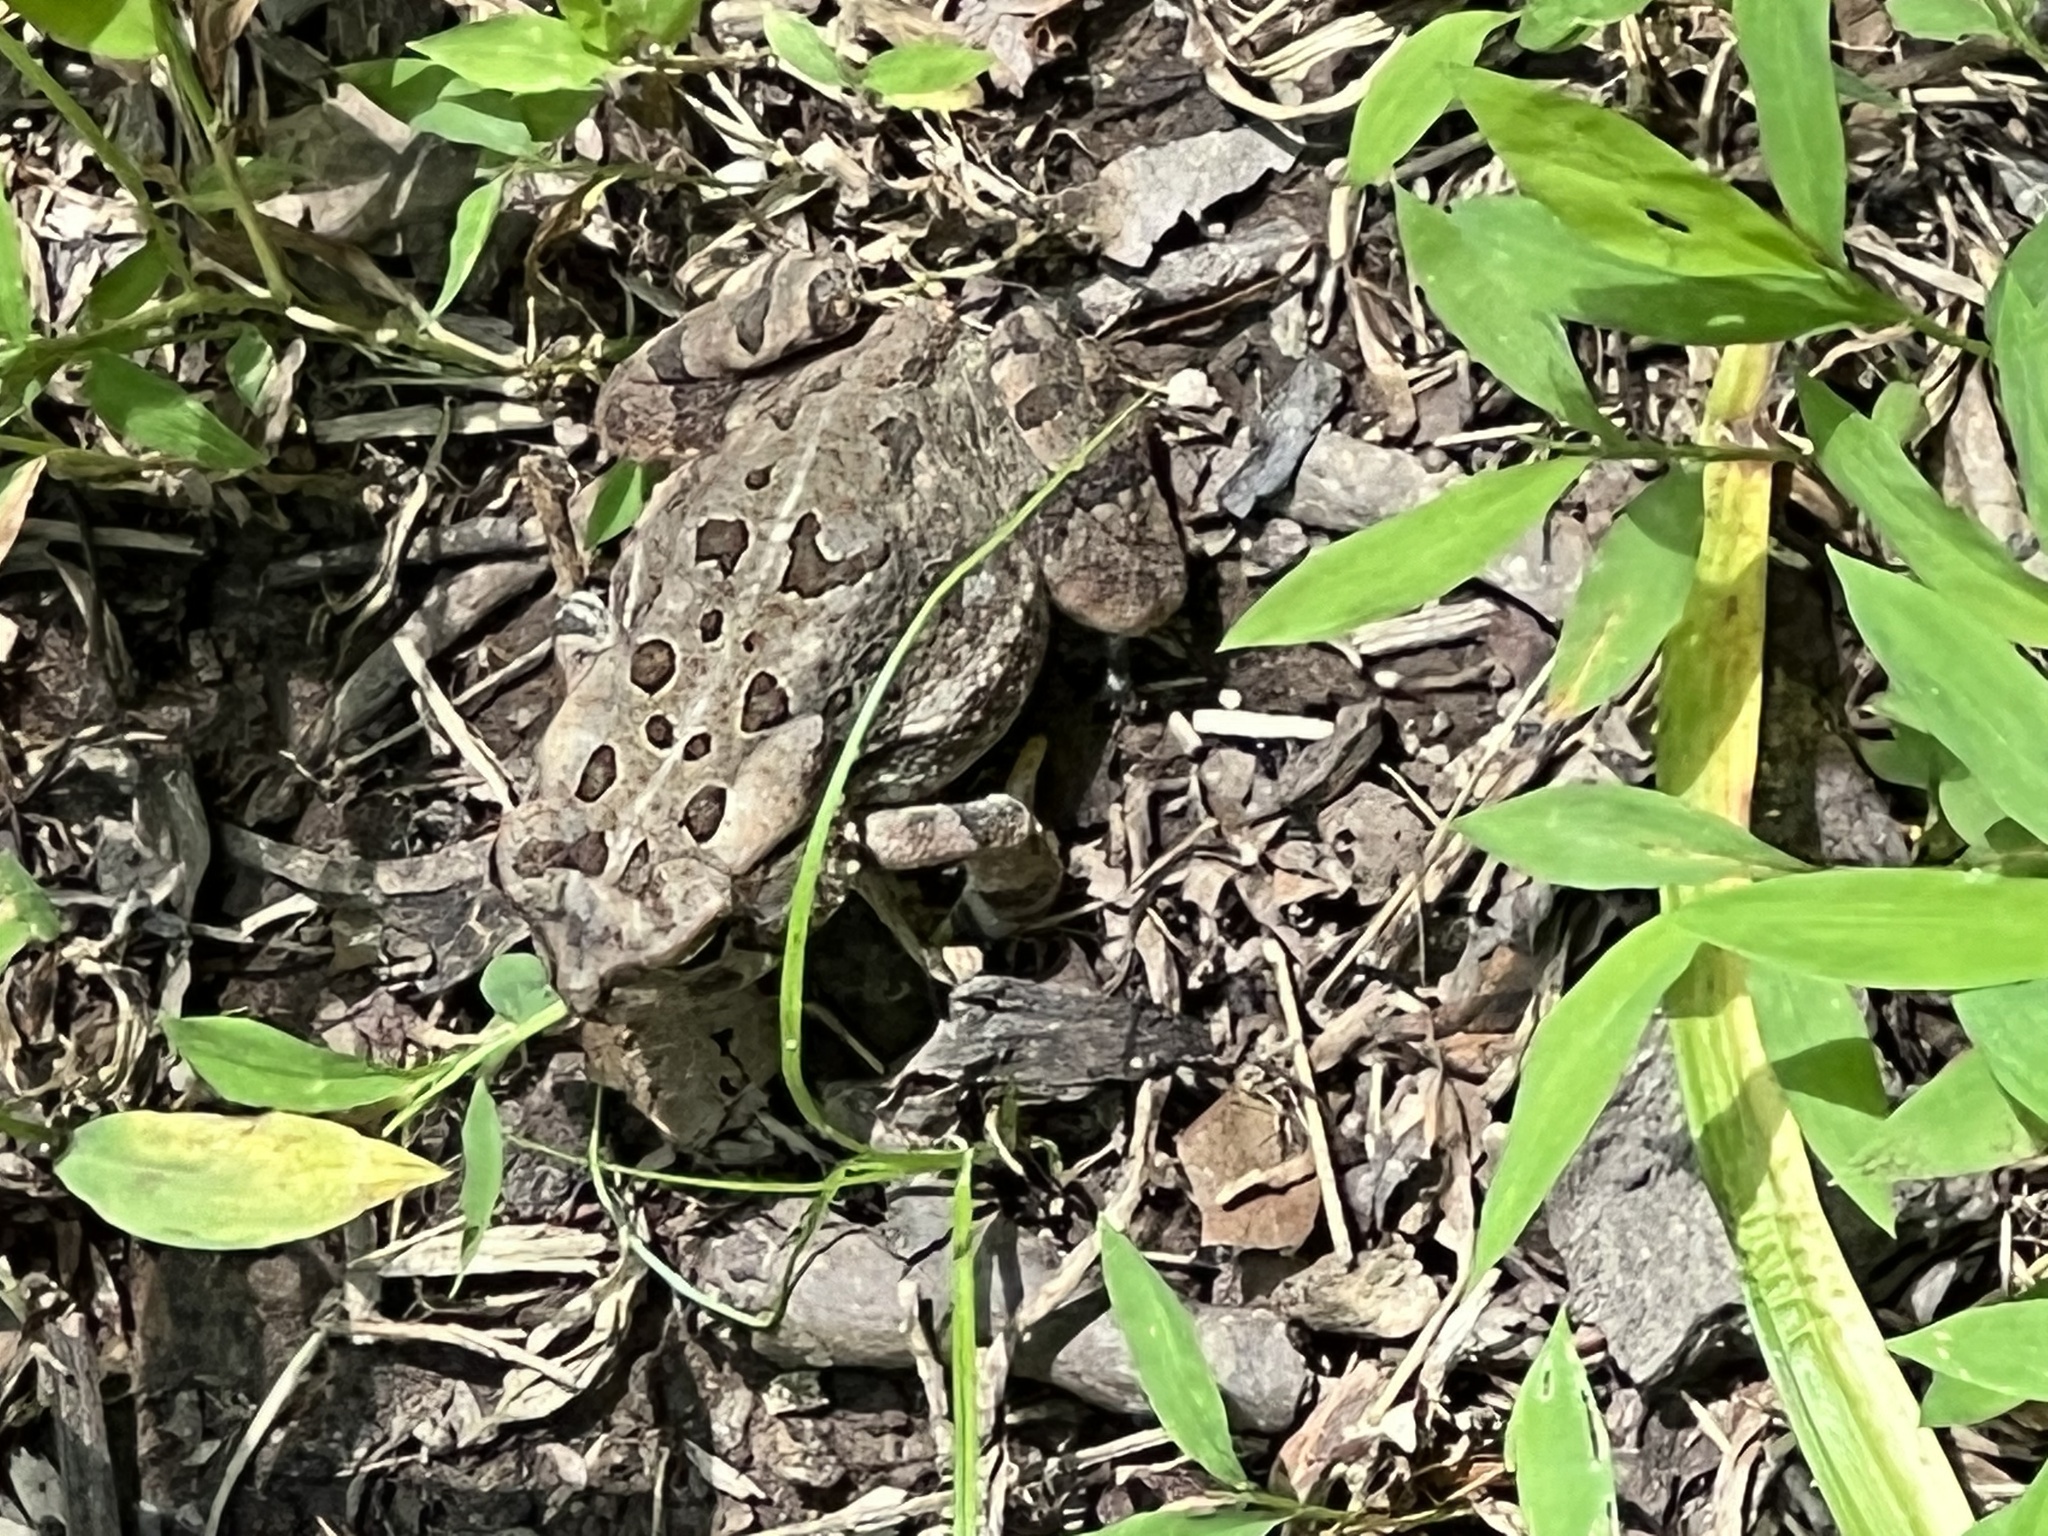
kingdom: Animalia
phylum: Chordata
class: Amphibia
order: Anura
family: Bufonidae
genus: Anaxyrus
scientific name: Anaxyrus fowleri
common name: Fowler's toad
